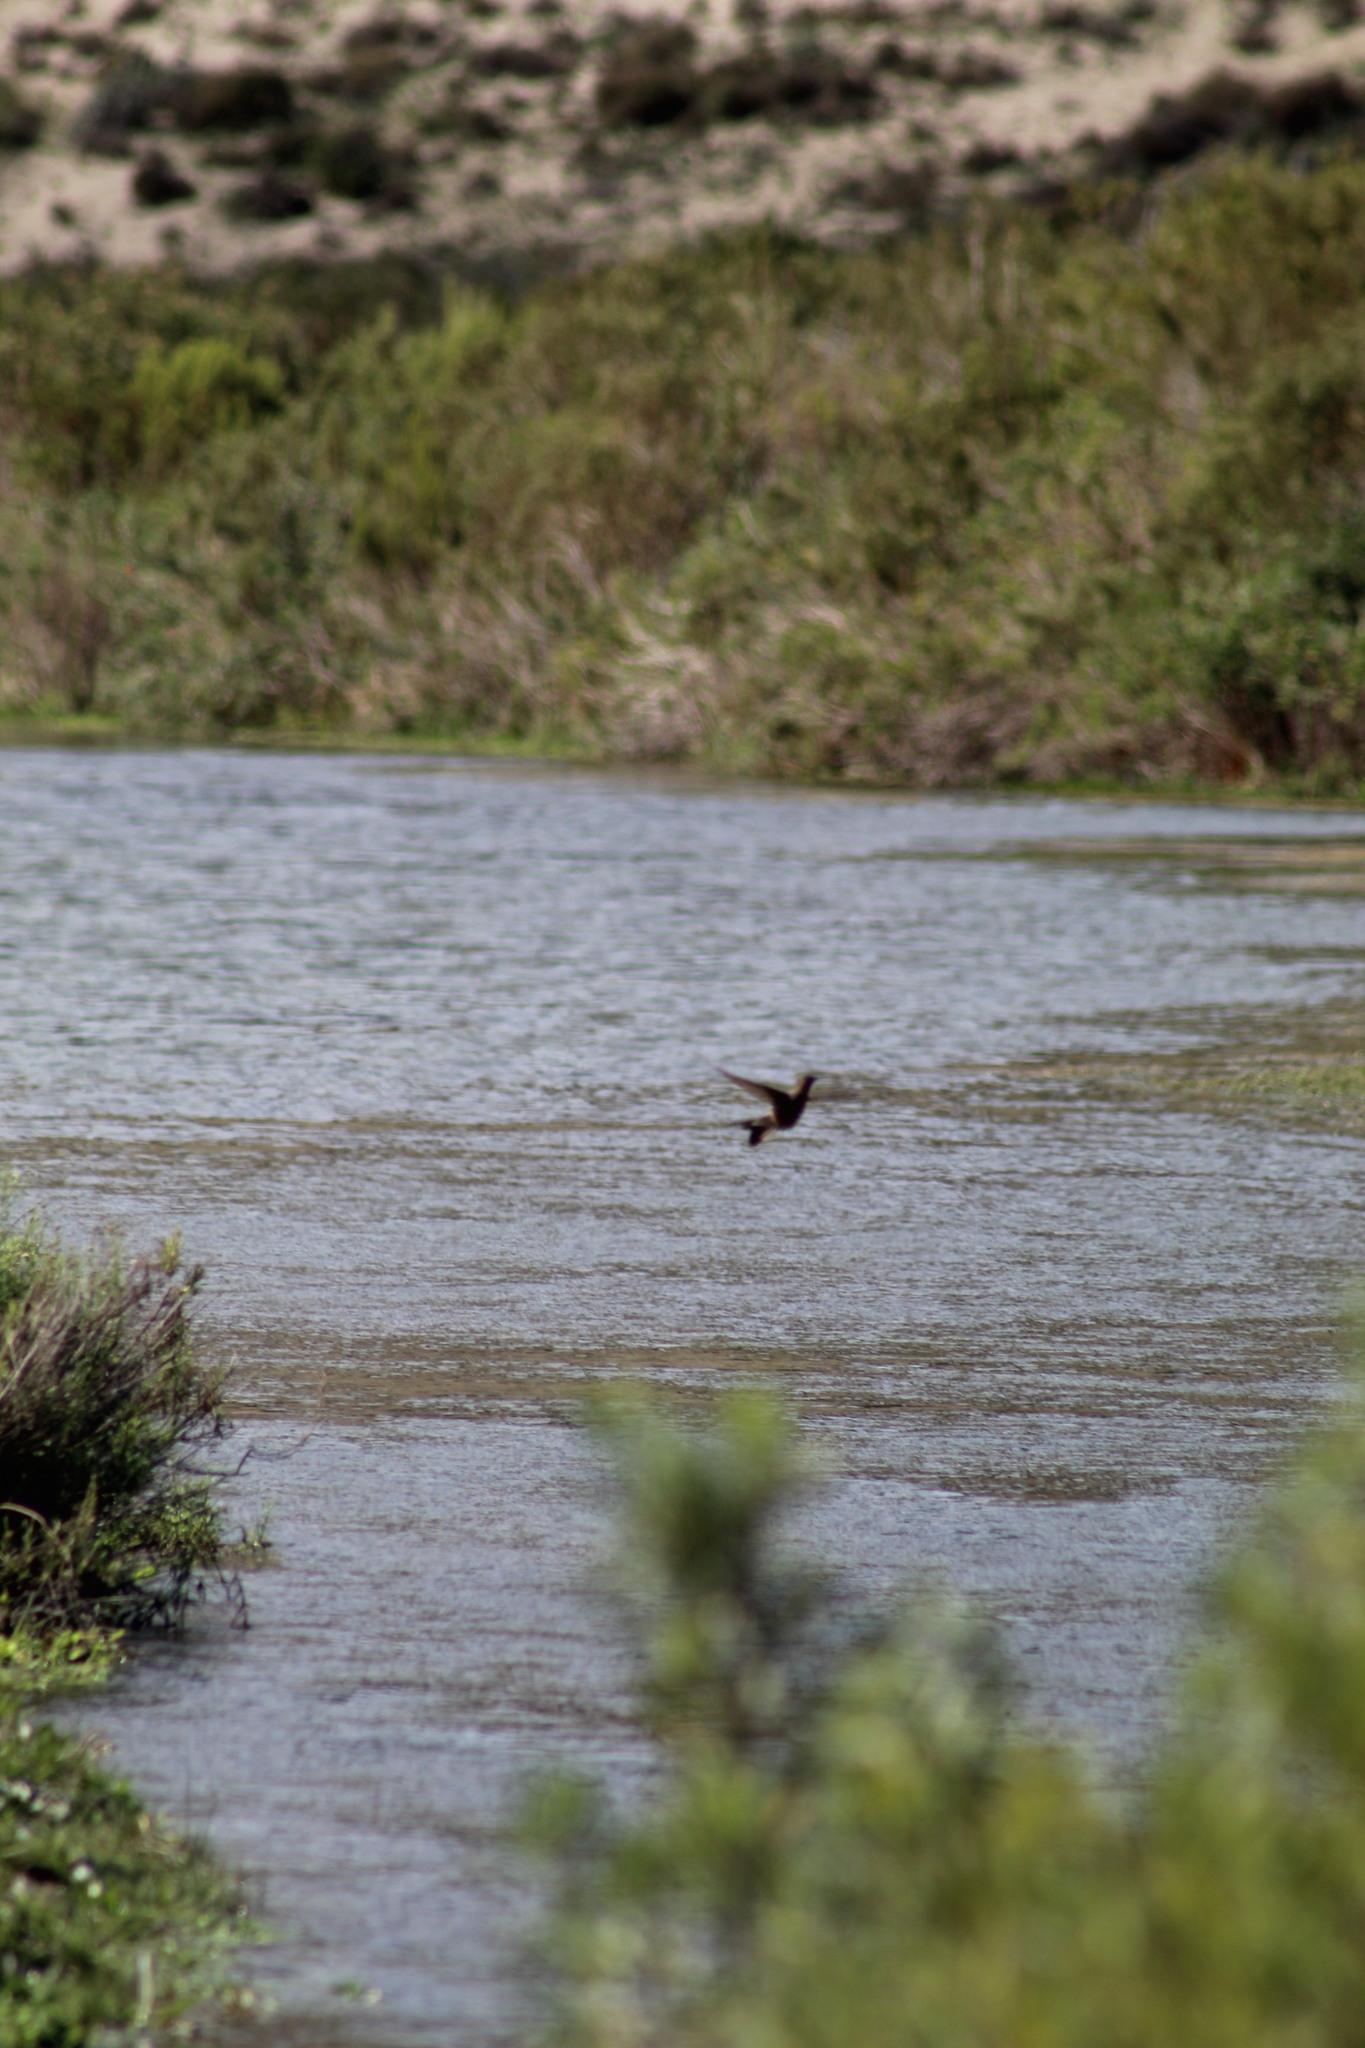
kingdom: Animalia
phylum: Chordata
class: Aves
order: Apodiformes
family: Trochilidae
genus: Patagona
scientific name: Patagona gigas
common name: Giant hummingbird
